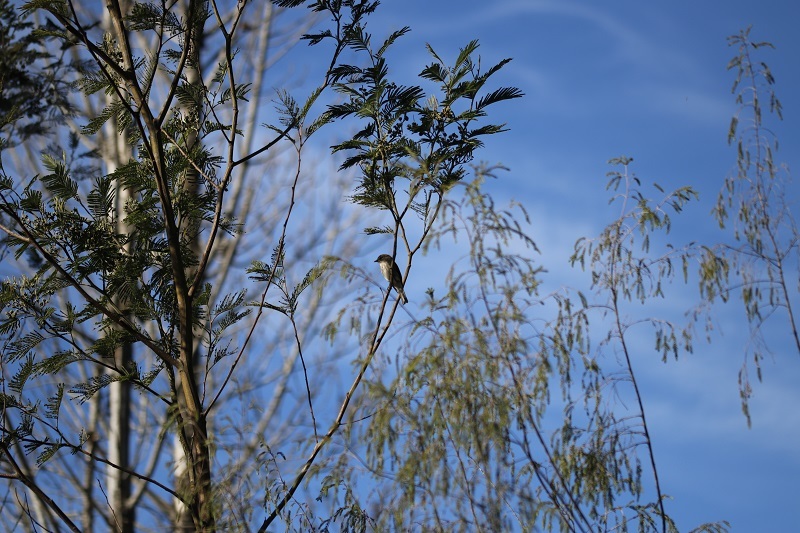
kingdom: Animalia
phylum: Chordata
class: Aves
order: Passeriformes
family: Muscicapidae
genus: Muscicapa
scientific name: Muscicapa adusta
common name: African dusky flycatcher
